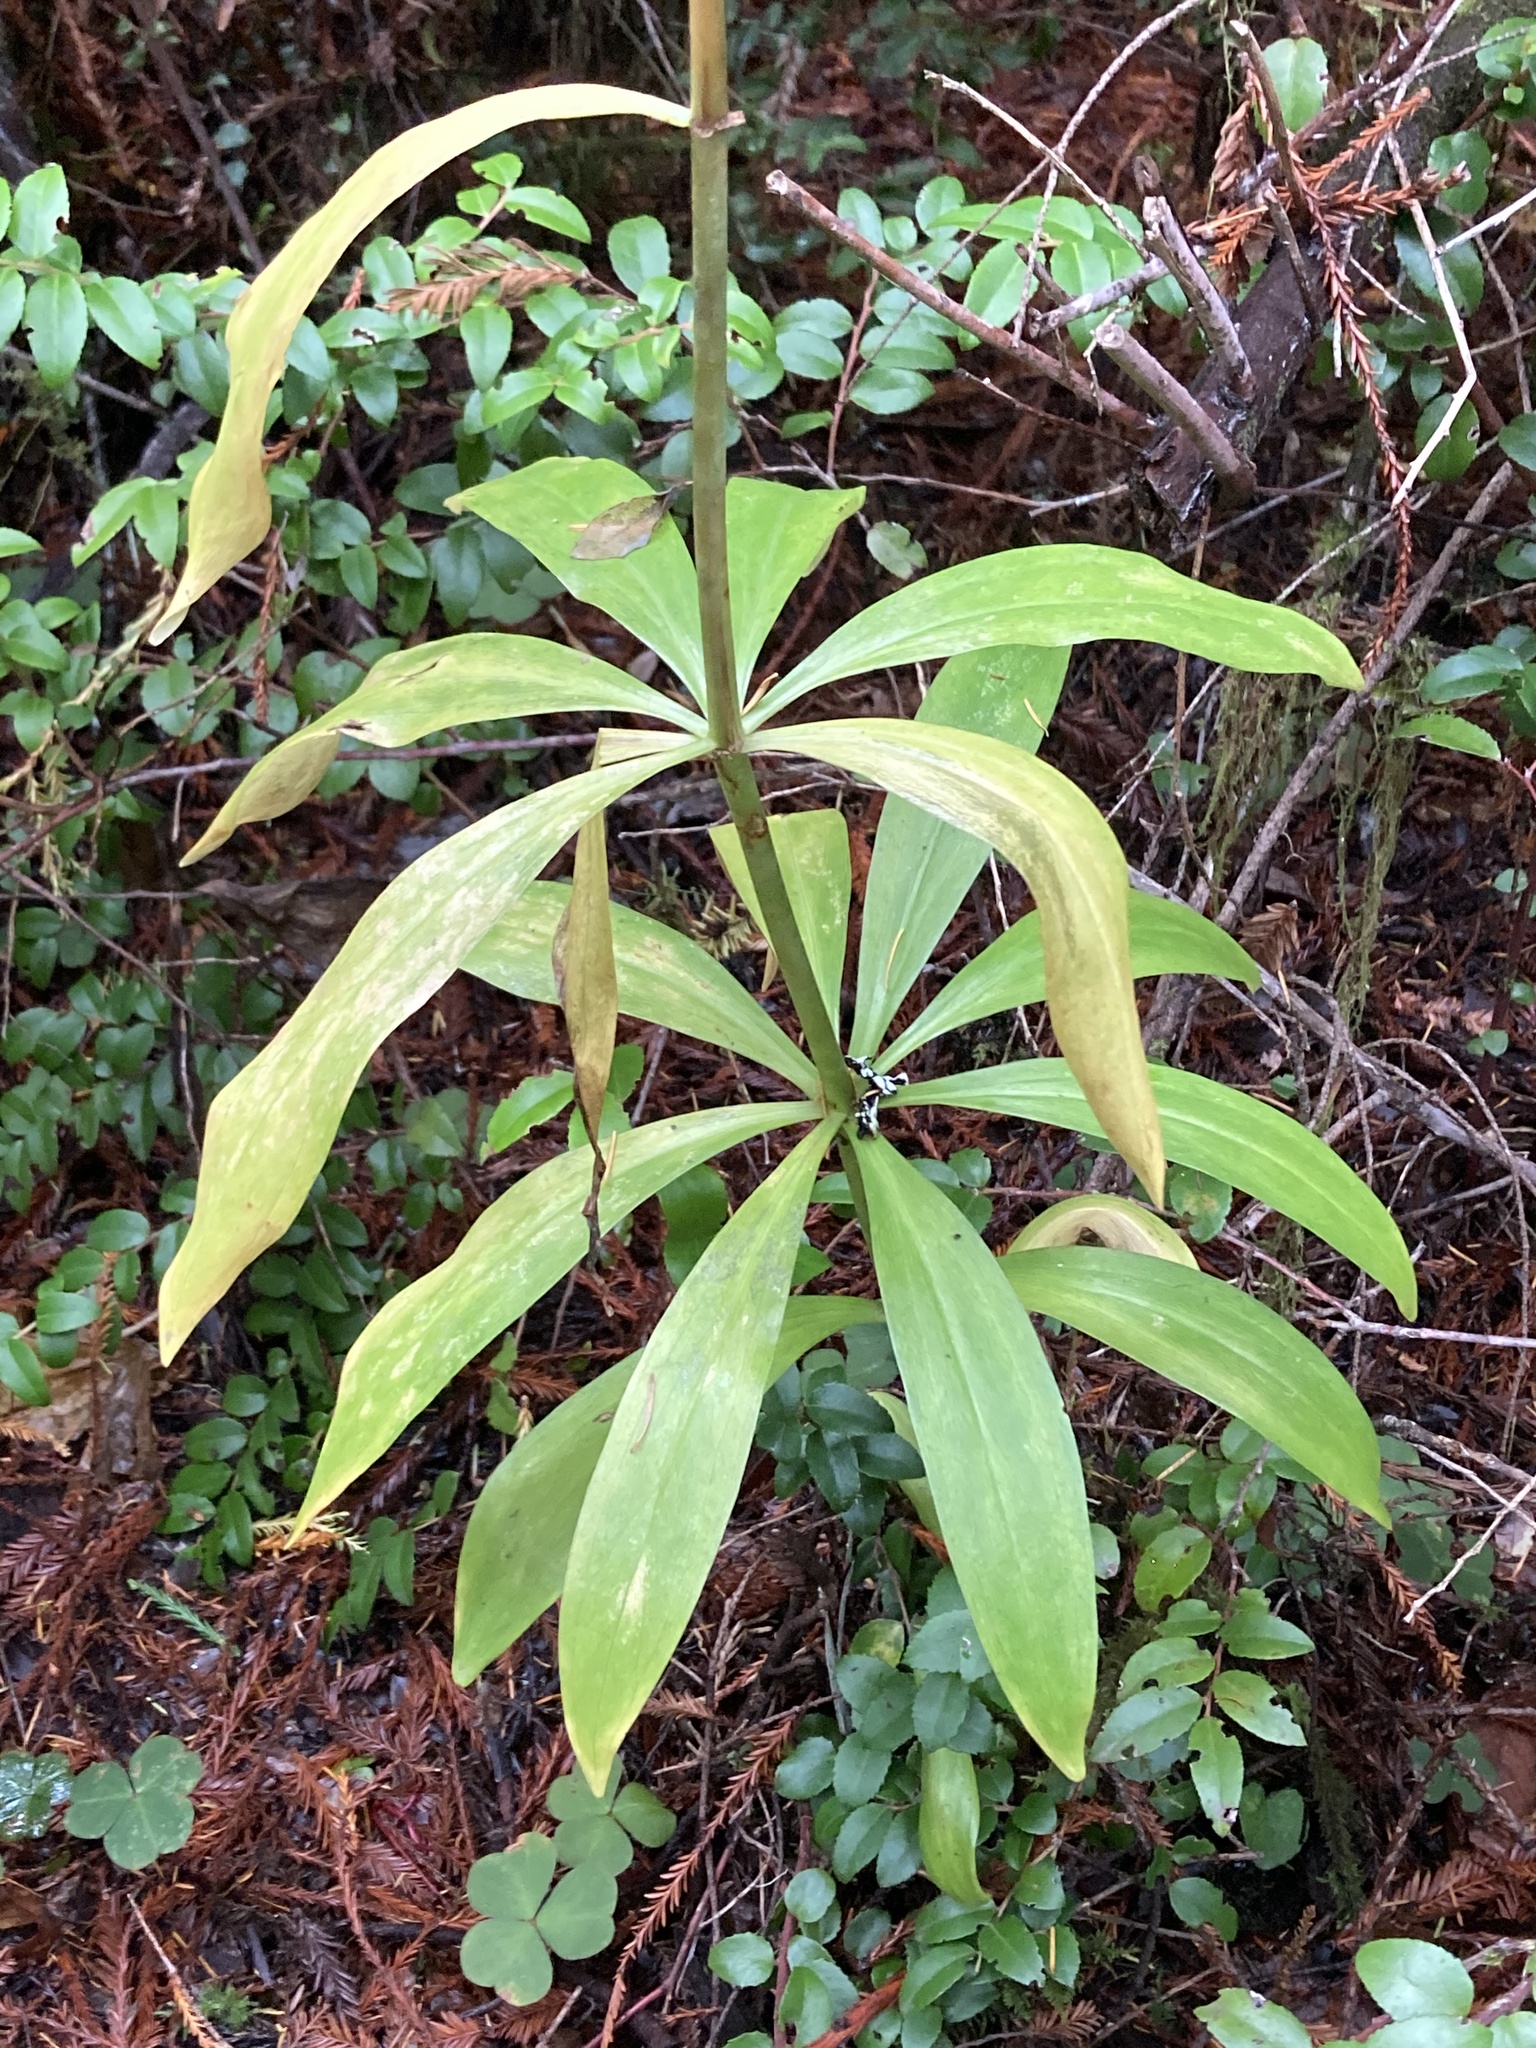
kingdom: Plantae
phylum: Tracheophyta
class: Liliopsida
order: Liliales
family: Liliaceae
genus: Lilium
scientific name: Lilium columbianum
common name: Columbia lily
